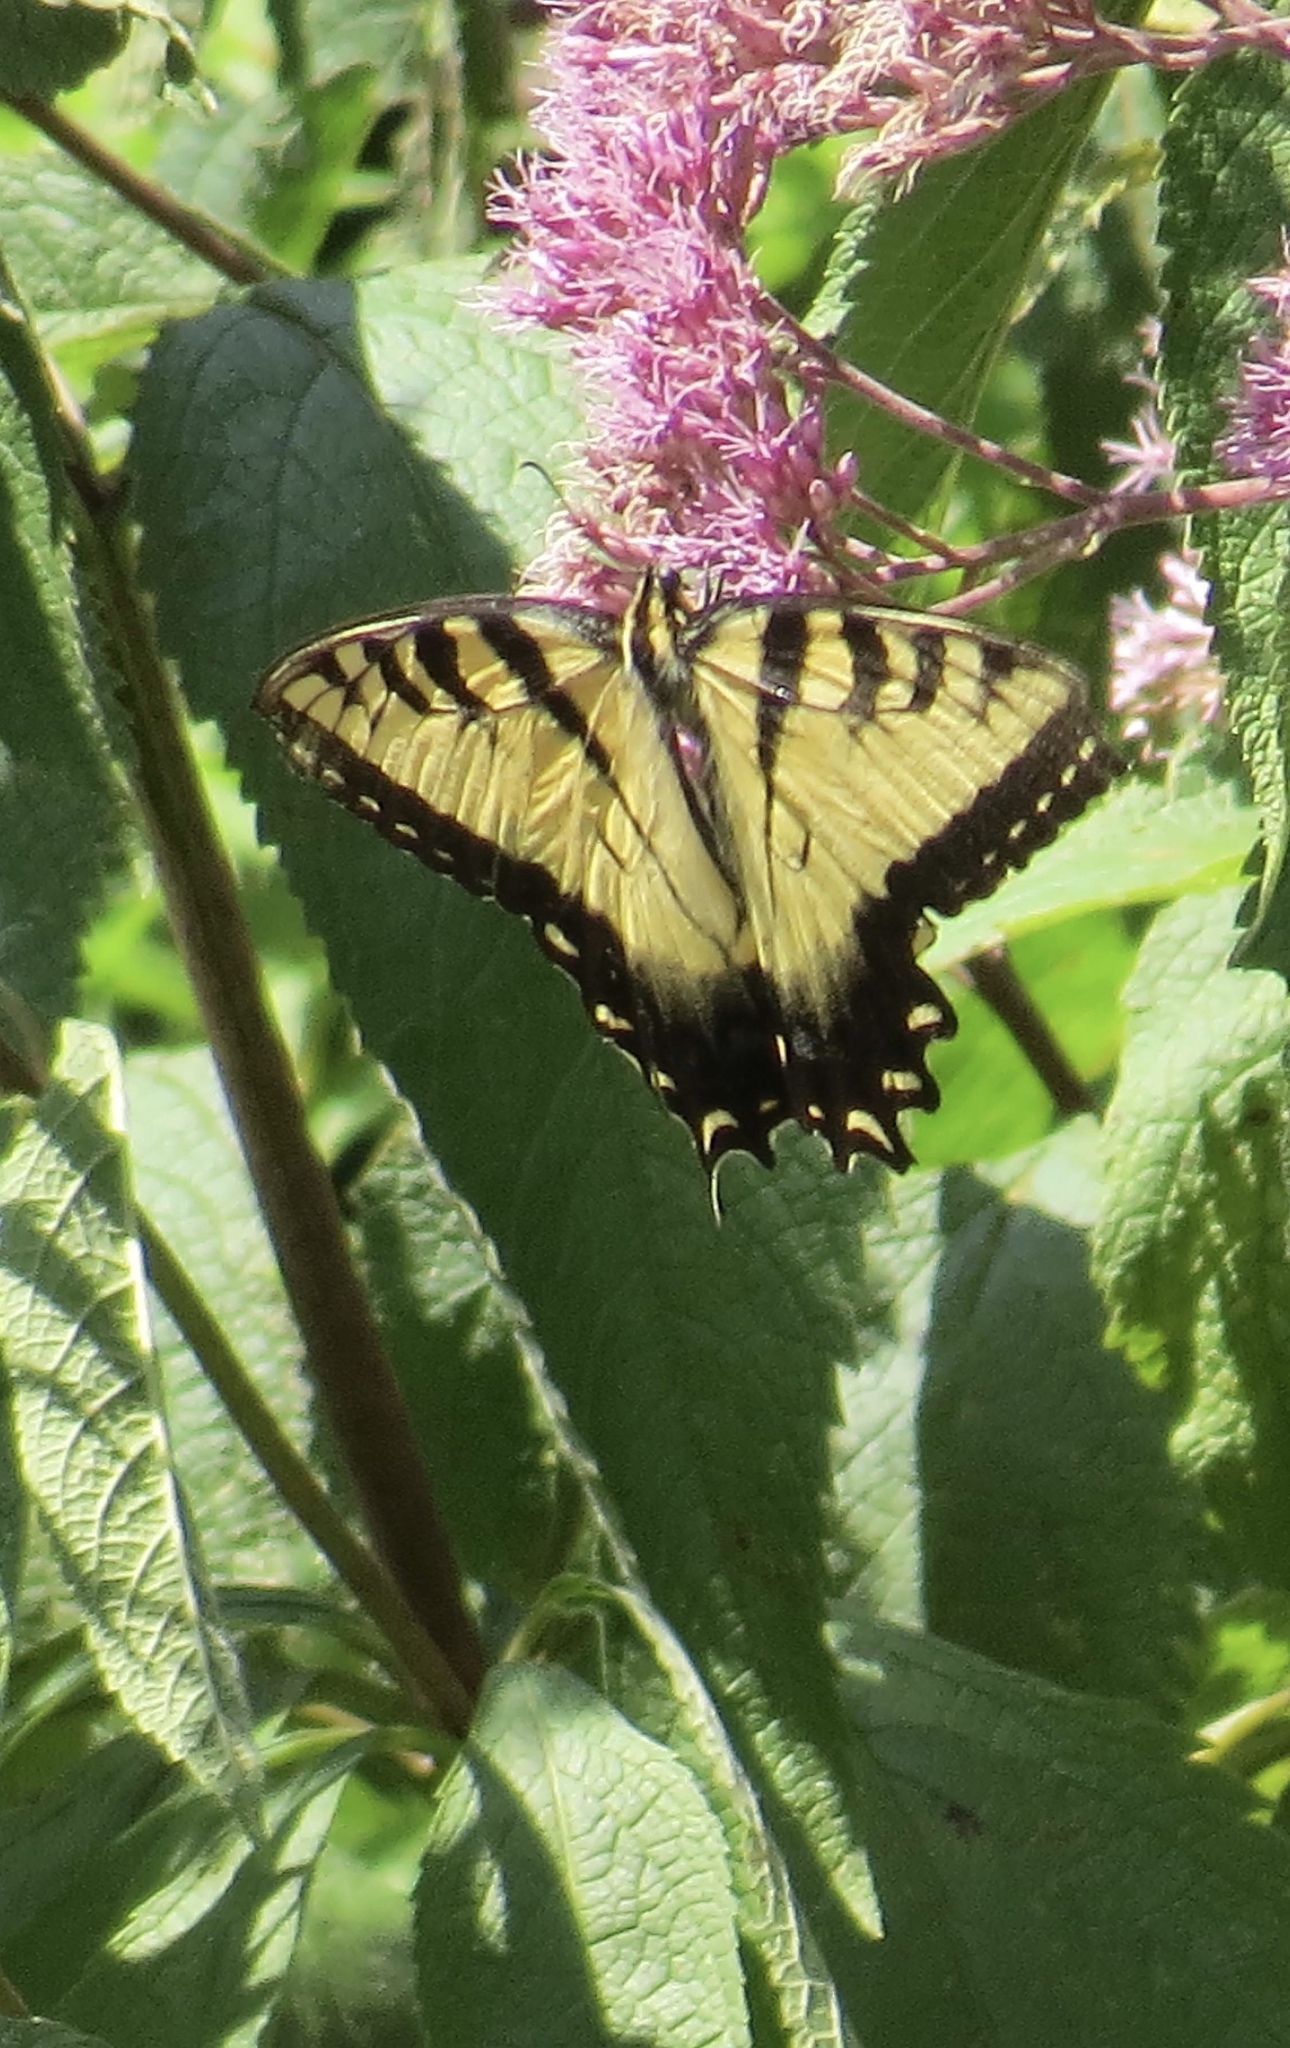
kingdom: Animalia
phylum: Arthropoda
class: Insecta
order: Lepidoptera
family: Papilionidae
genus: Papilio
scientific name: Papilio glaucus
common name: Tiger swallowtail
